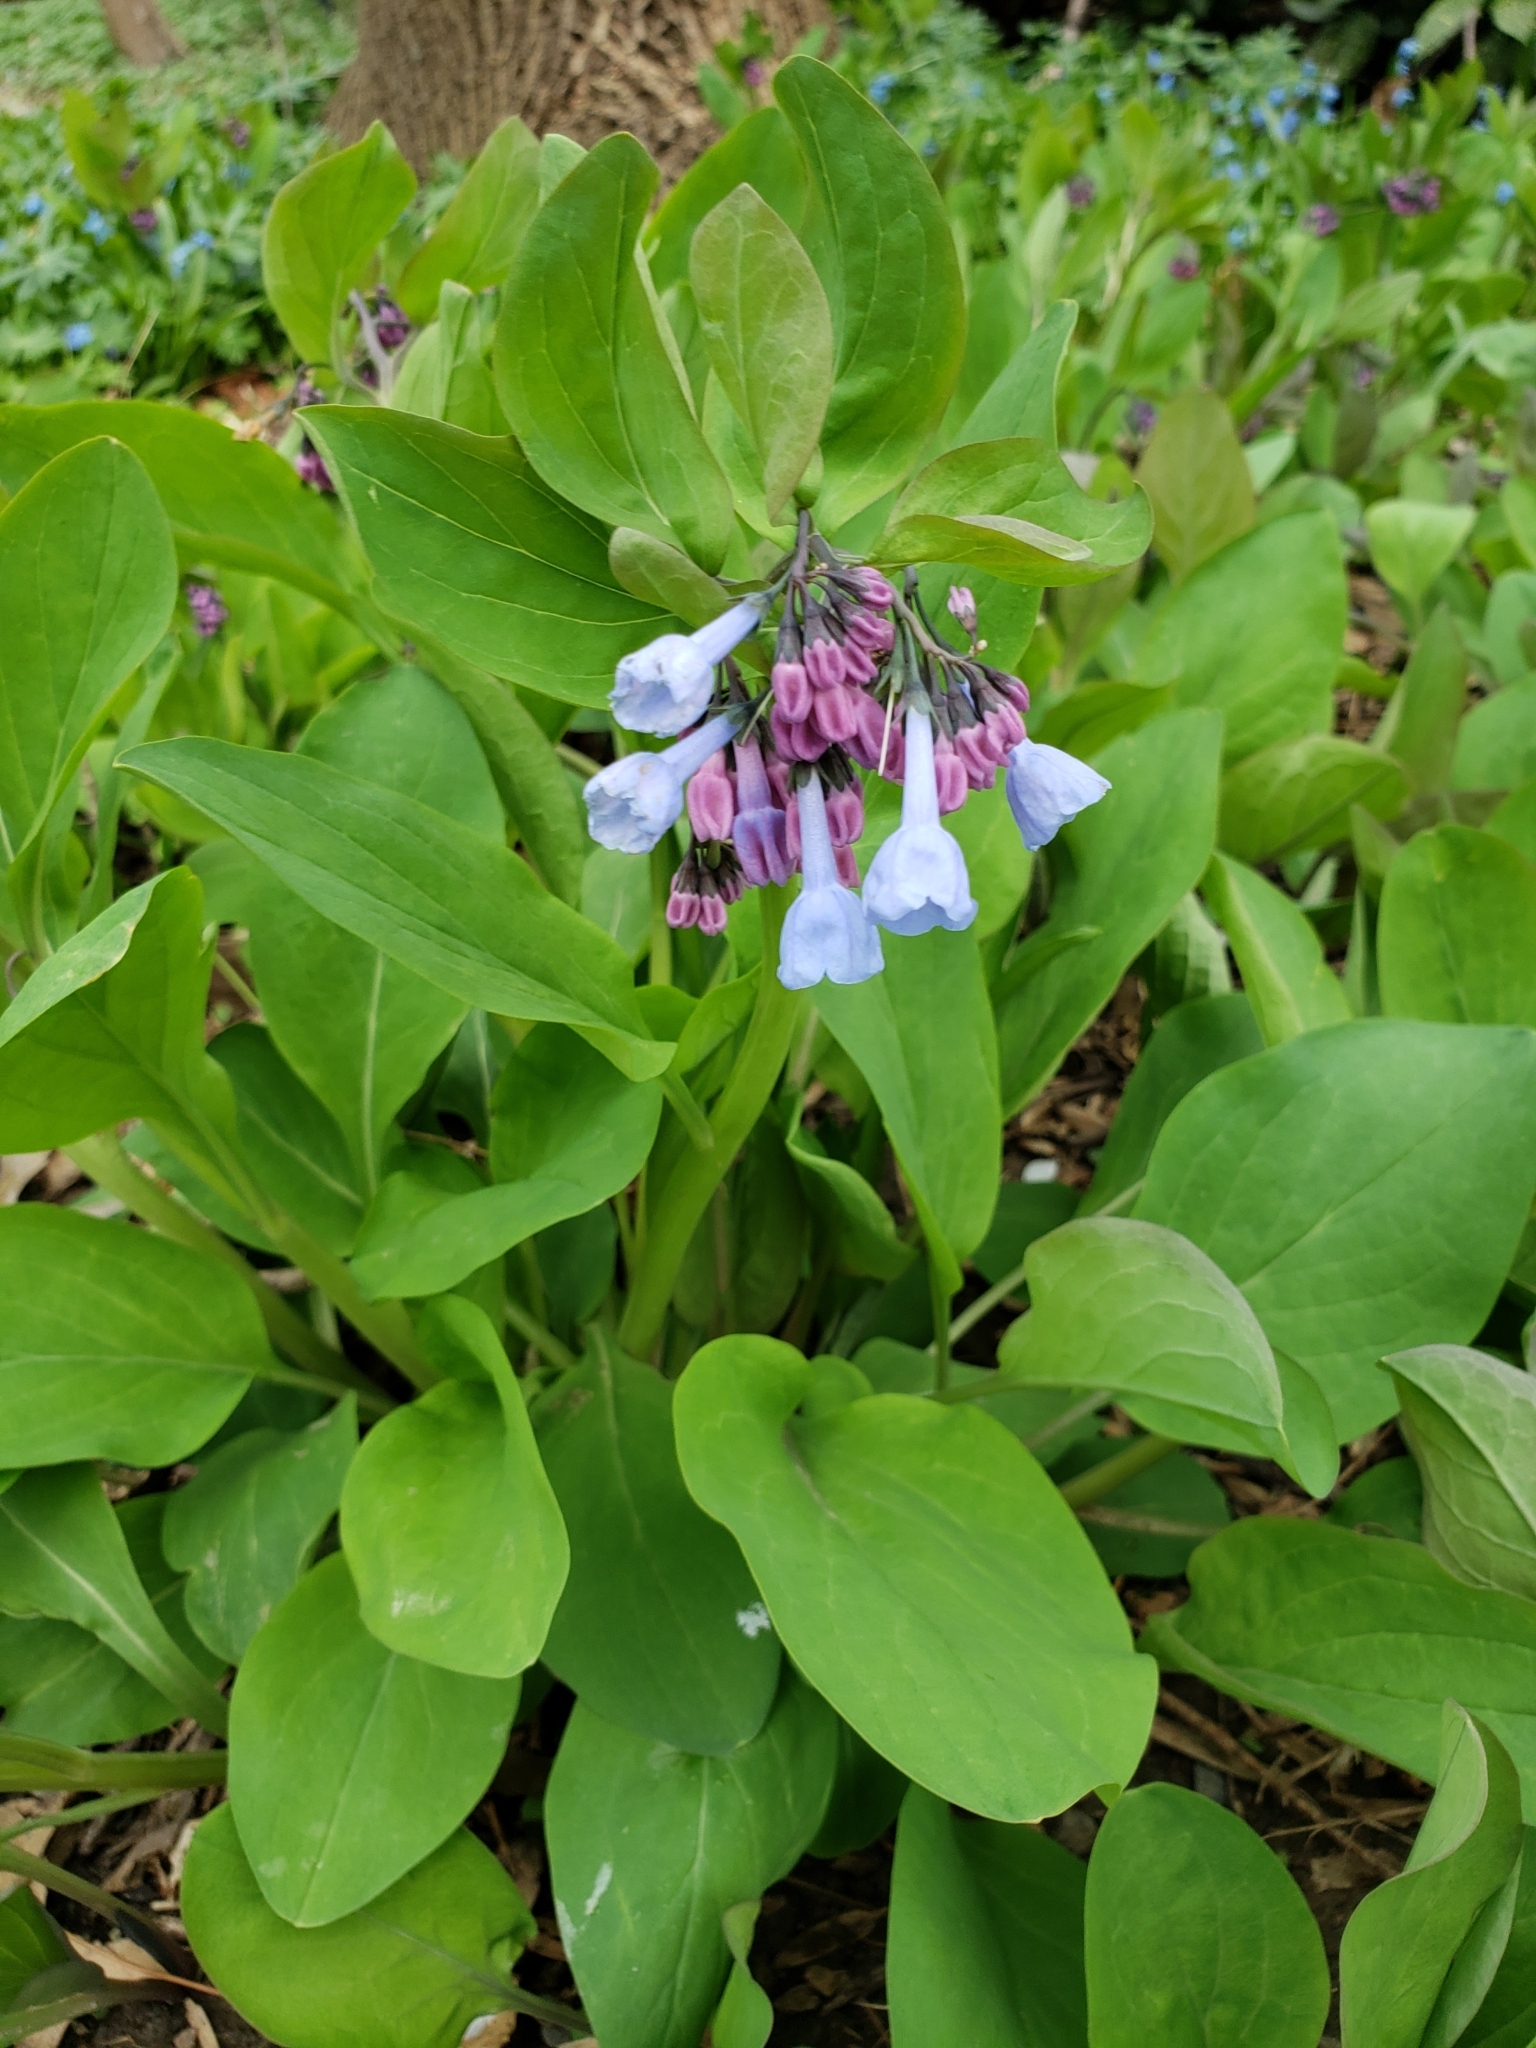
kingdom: Plantae
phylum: Tracheophyta
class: Magnoliopsida
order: Boraginales
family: Boraginaceae
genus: Mertensia
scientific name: Mertensia virginica
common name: Virginia bluebells
